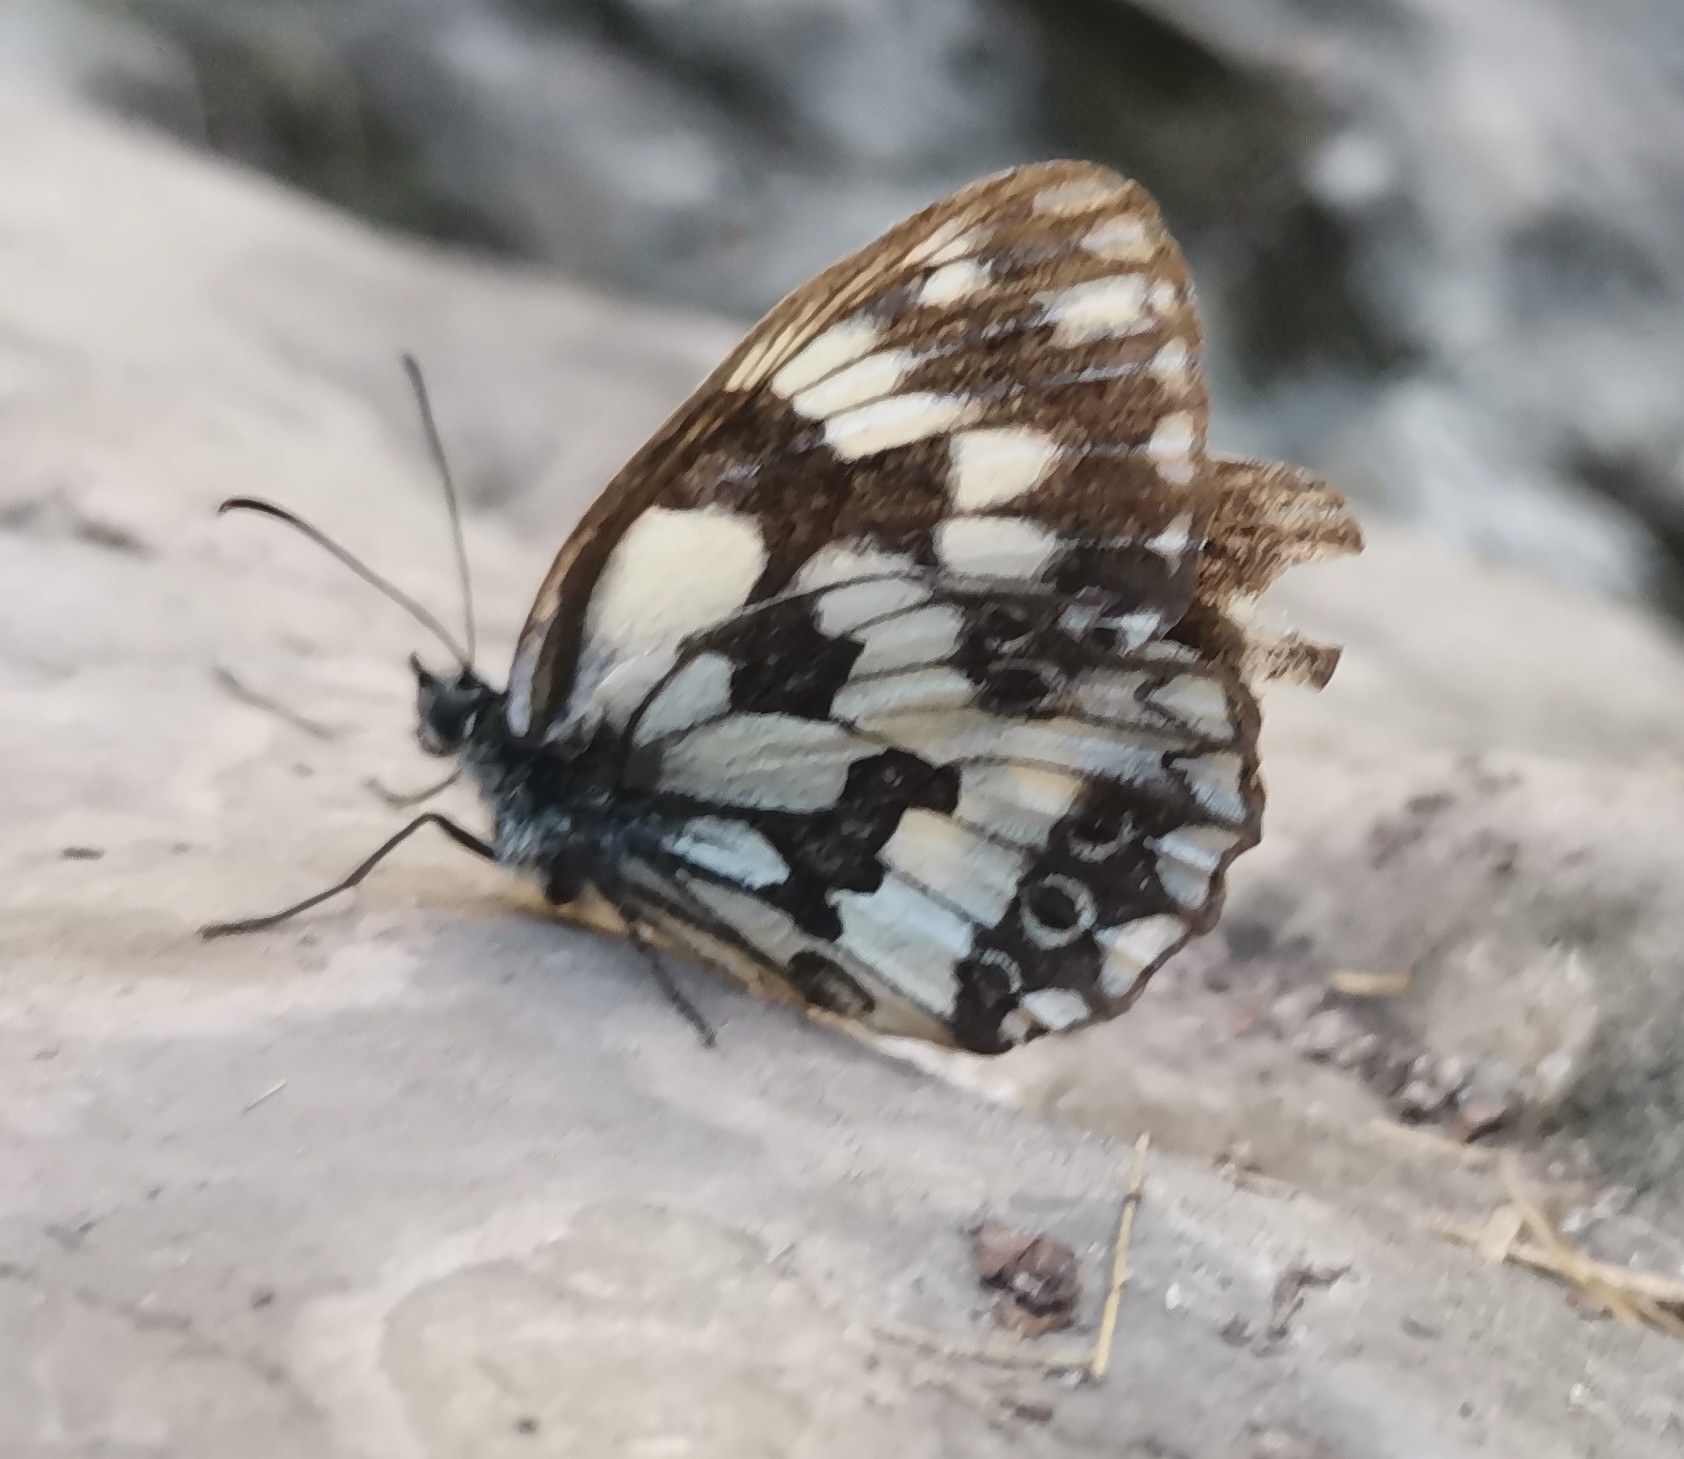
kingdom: Animalia
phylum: Arthropoda
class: Insecta
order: Lepidoptera
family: Nymphalidae
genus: Melanargia
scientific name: Melanargia galathea
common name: Marbled white
